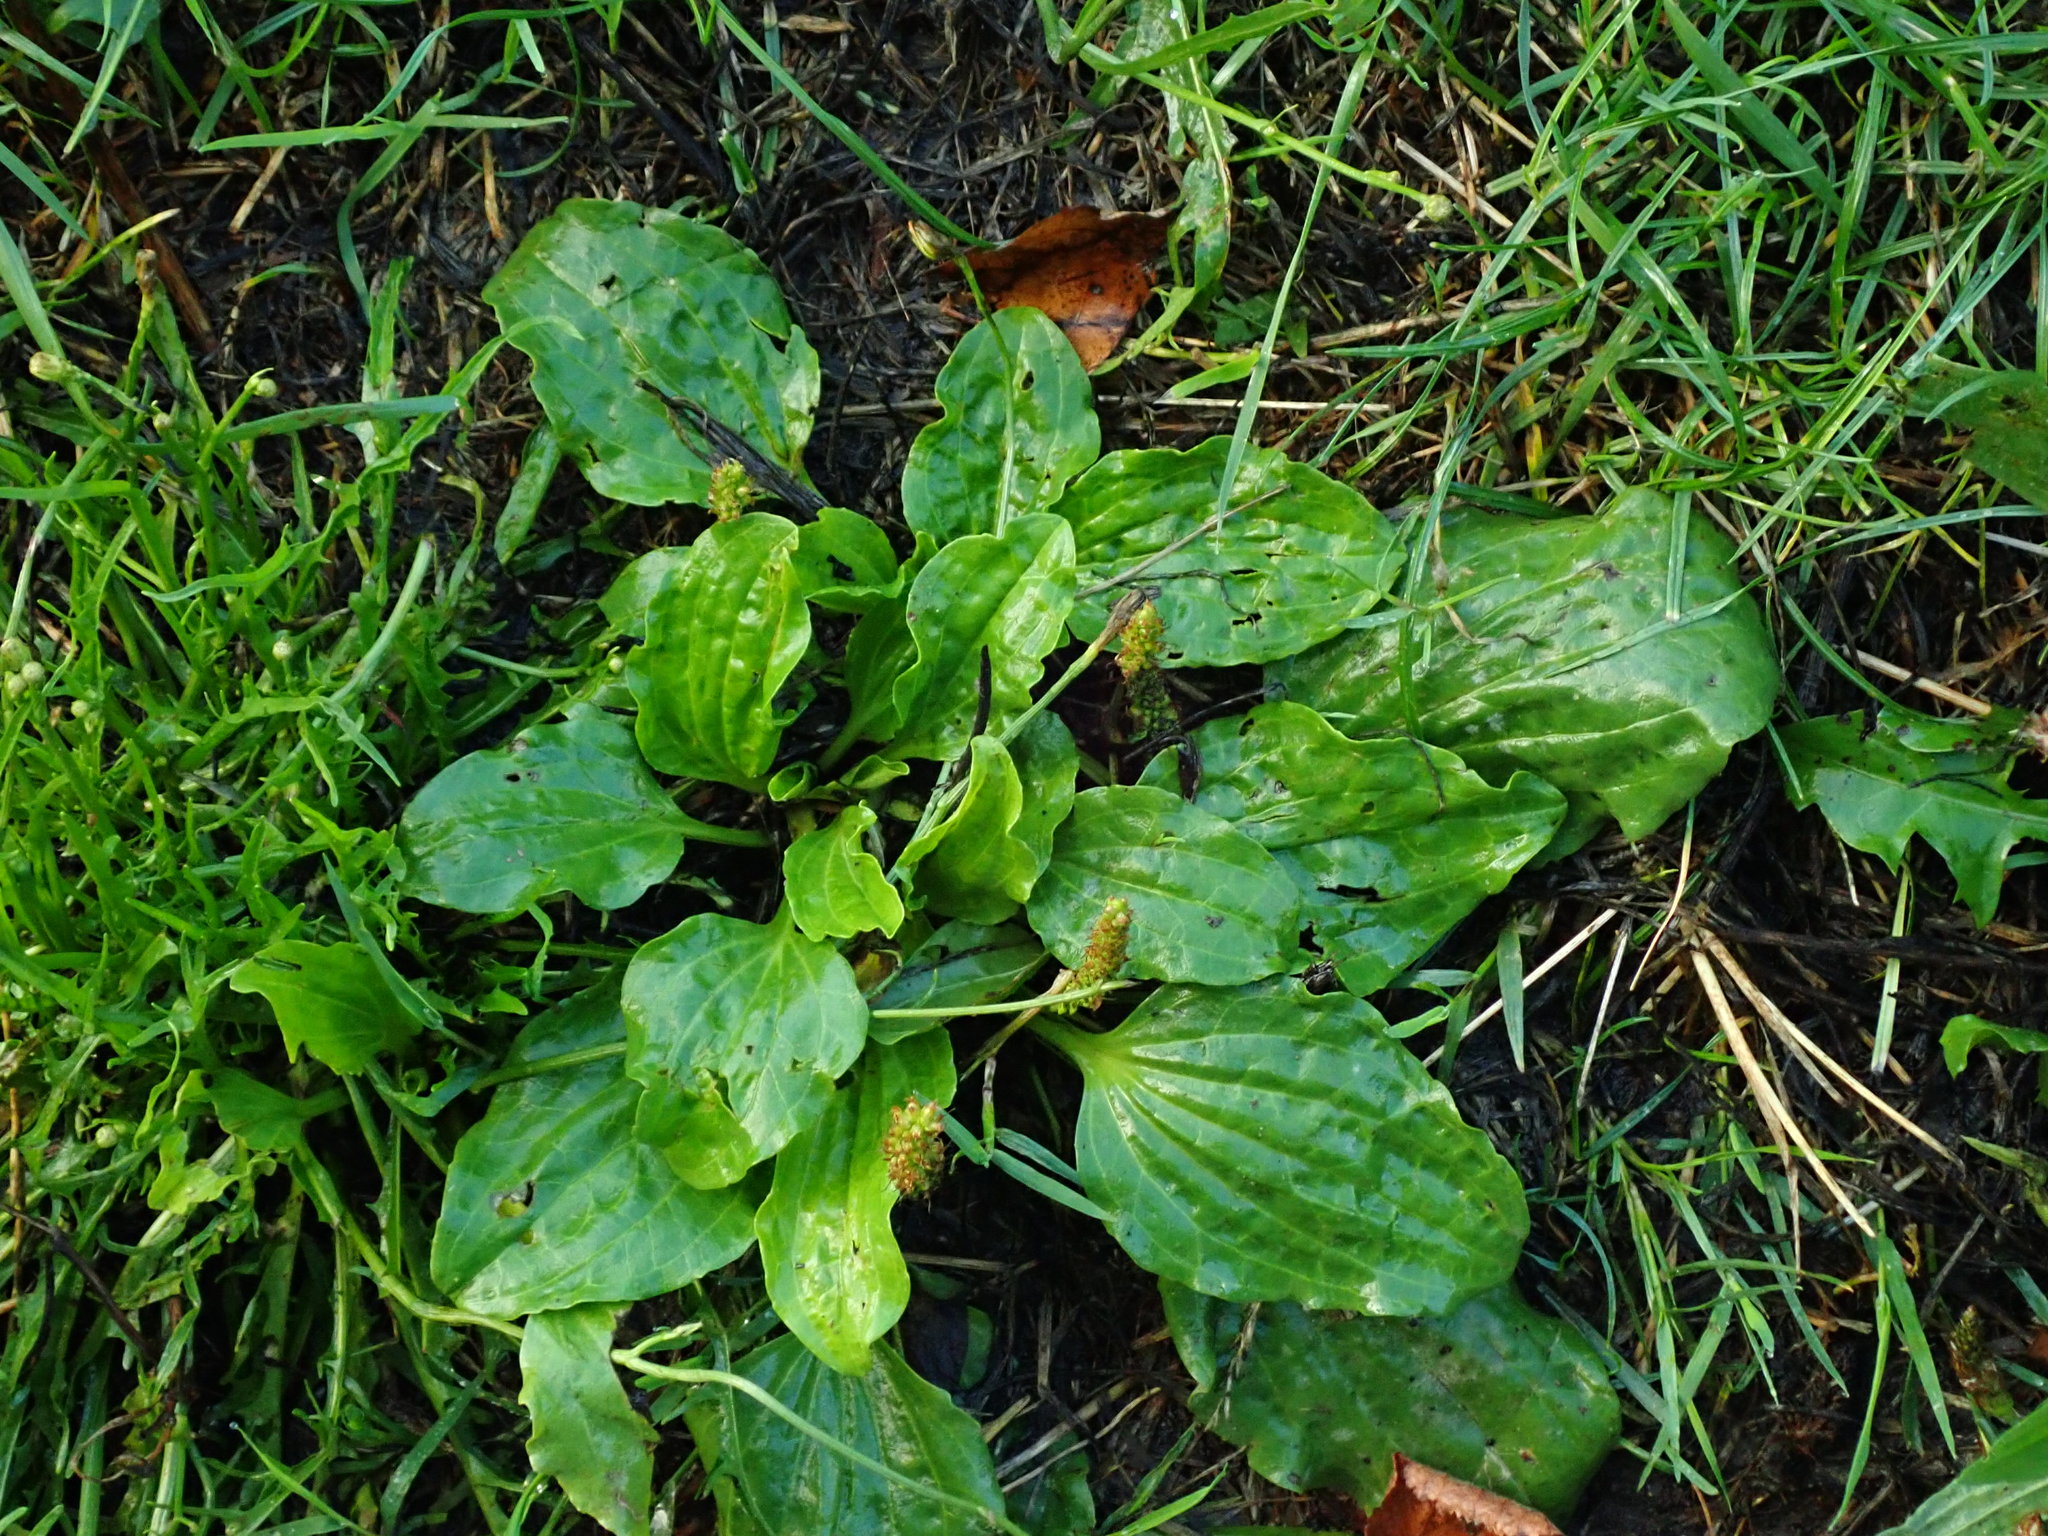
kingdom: Plantae
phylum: Tracheophyta
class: Magnoliopsida
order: Lamiales
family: Plantaginaceae
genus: Plantago
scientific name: Plantago major
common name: Common plantain
